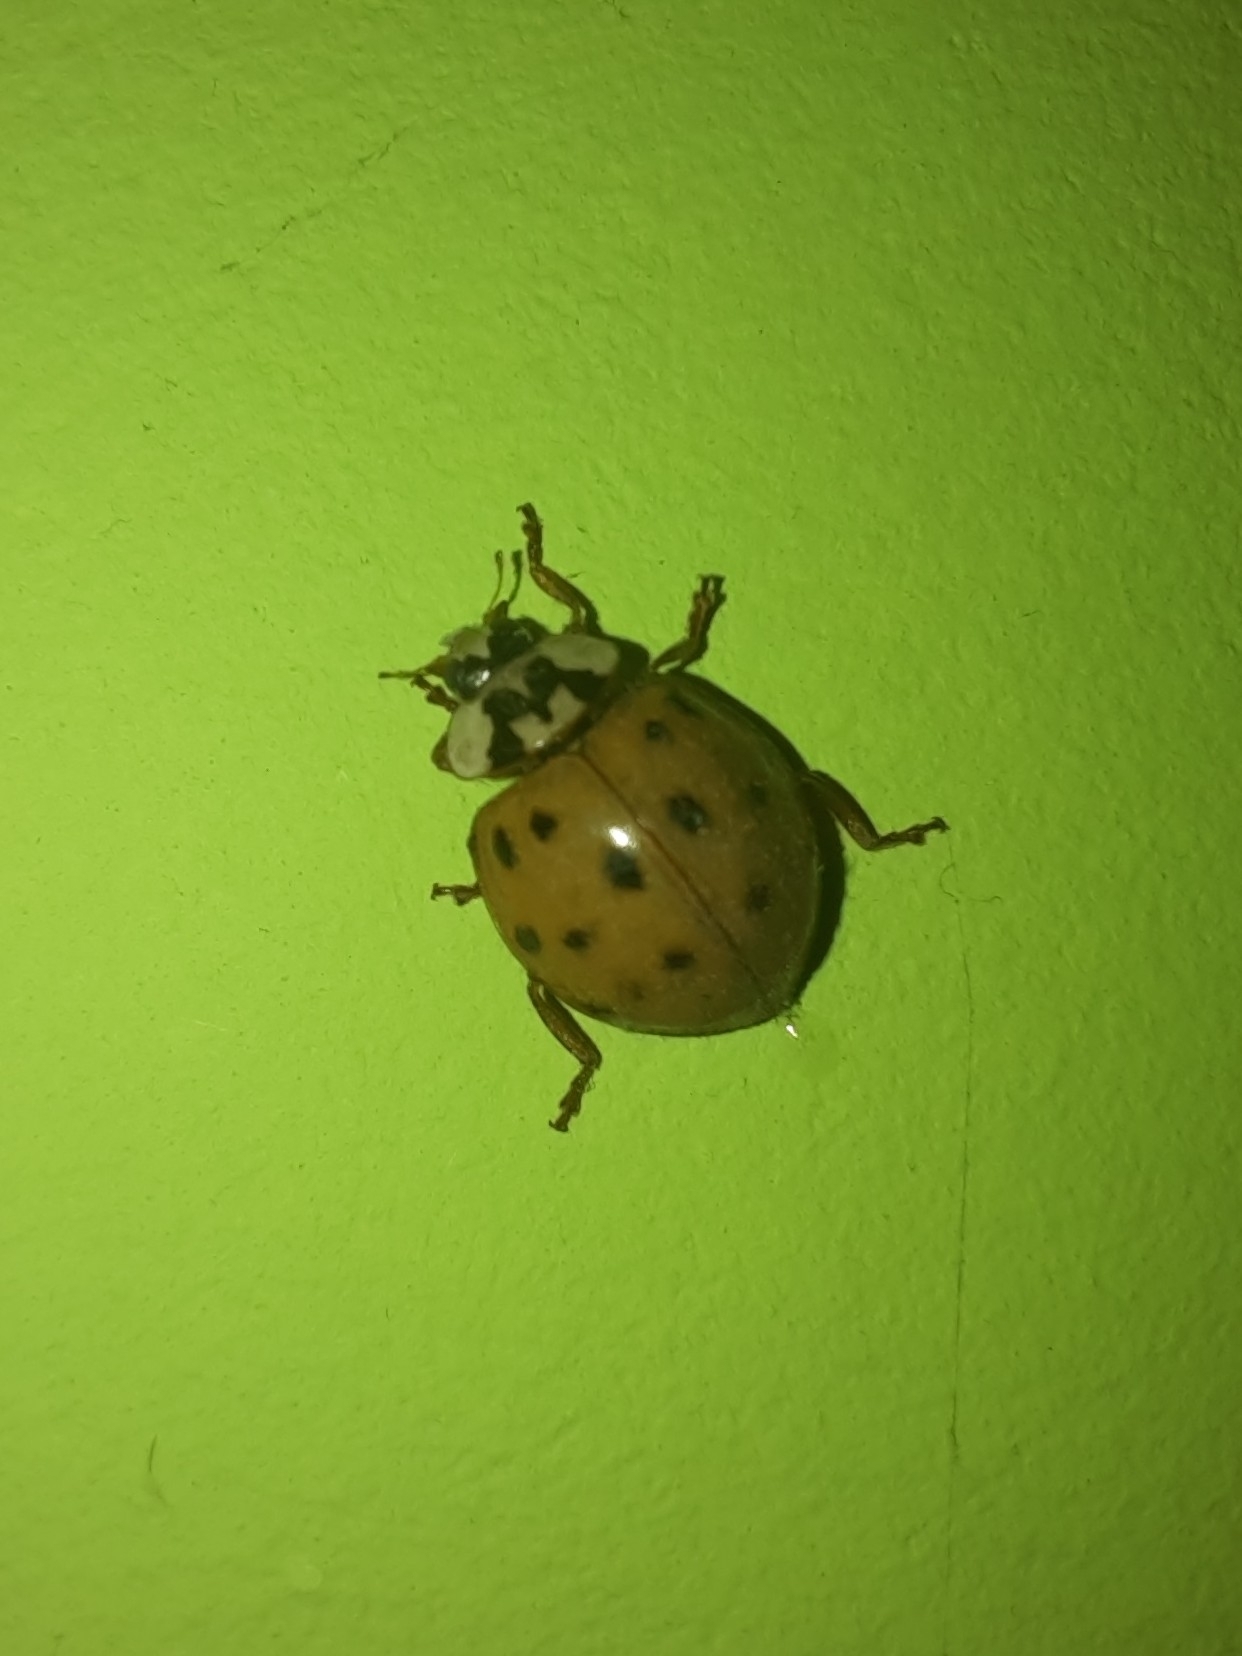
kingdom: Animalia
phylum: Arthropoda
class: Insecta
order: Coleoptera
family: Coccinellidae
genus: Harmonia
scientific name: Harmonia axyridis
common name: Harlequin ladybird
